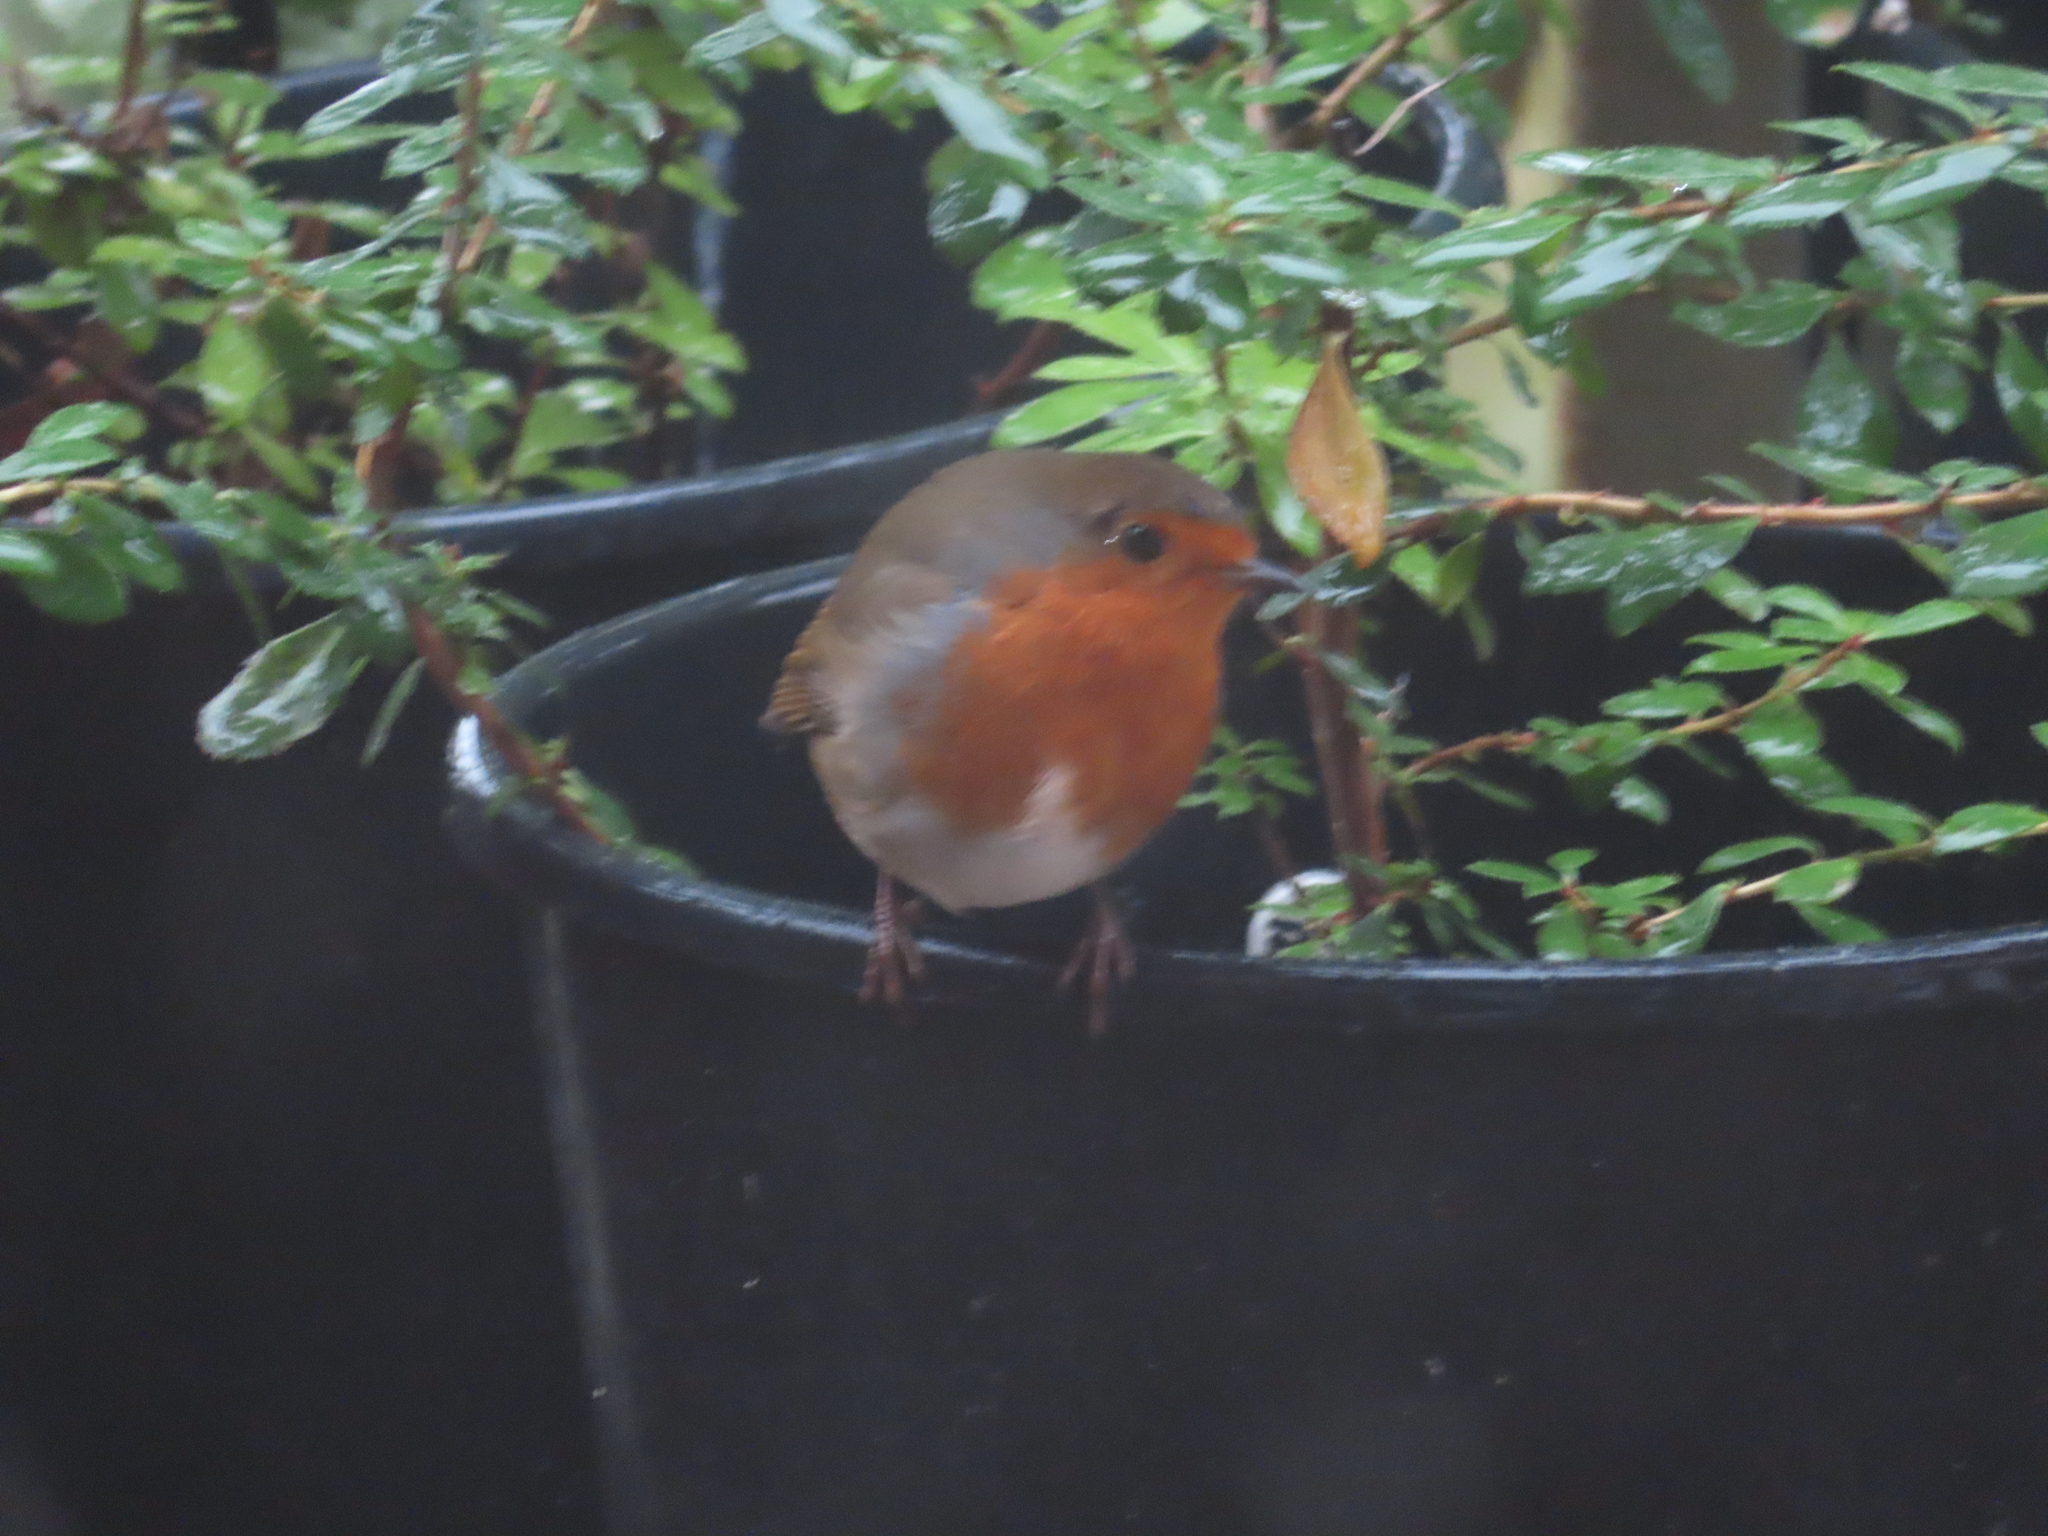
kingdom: Animalia
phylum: Chordata
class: Aves
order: Passeriformes
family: Muscicapidae
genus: Erithacus
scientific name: Erithacus rubecula
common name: European robin
